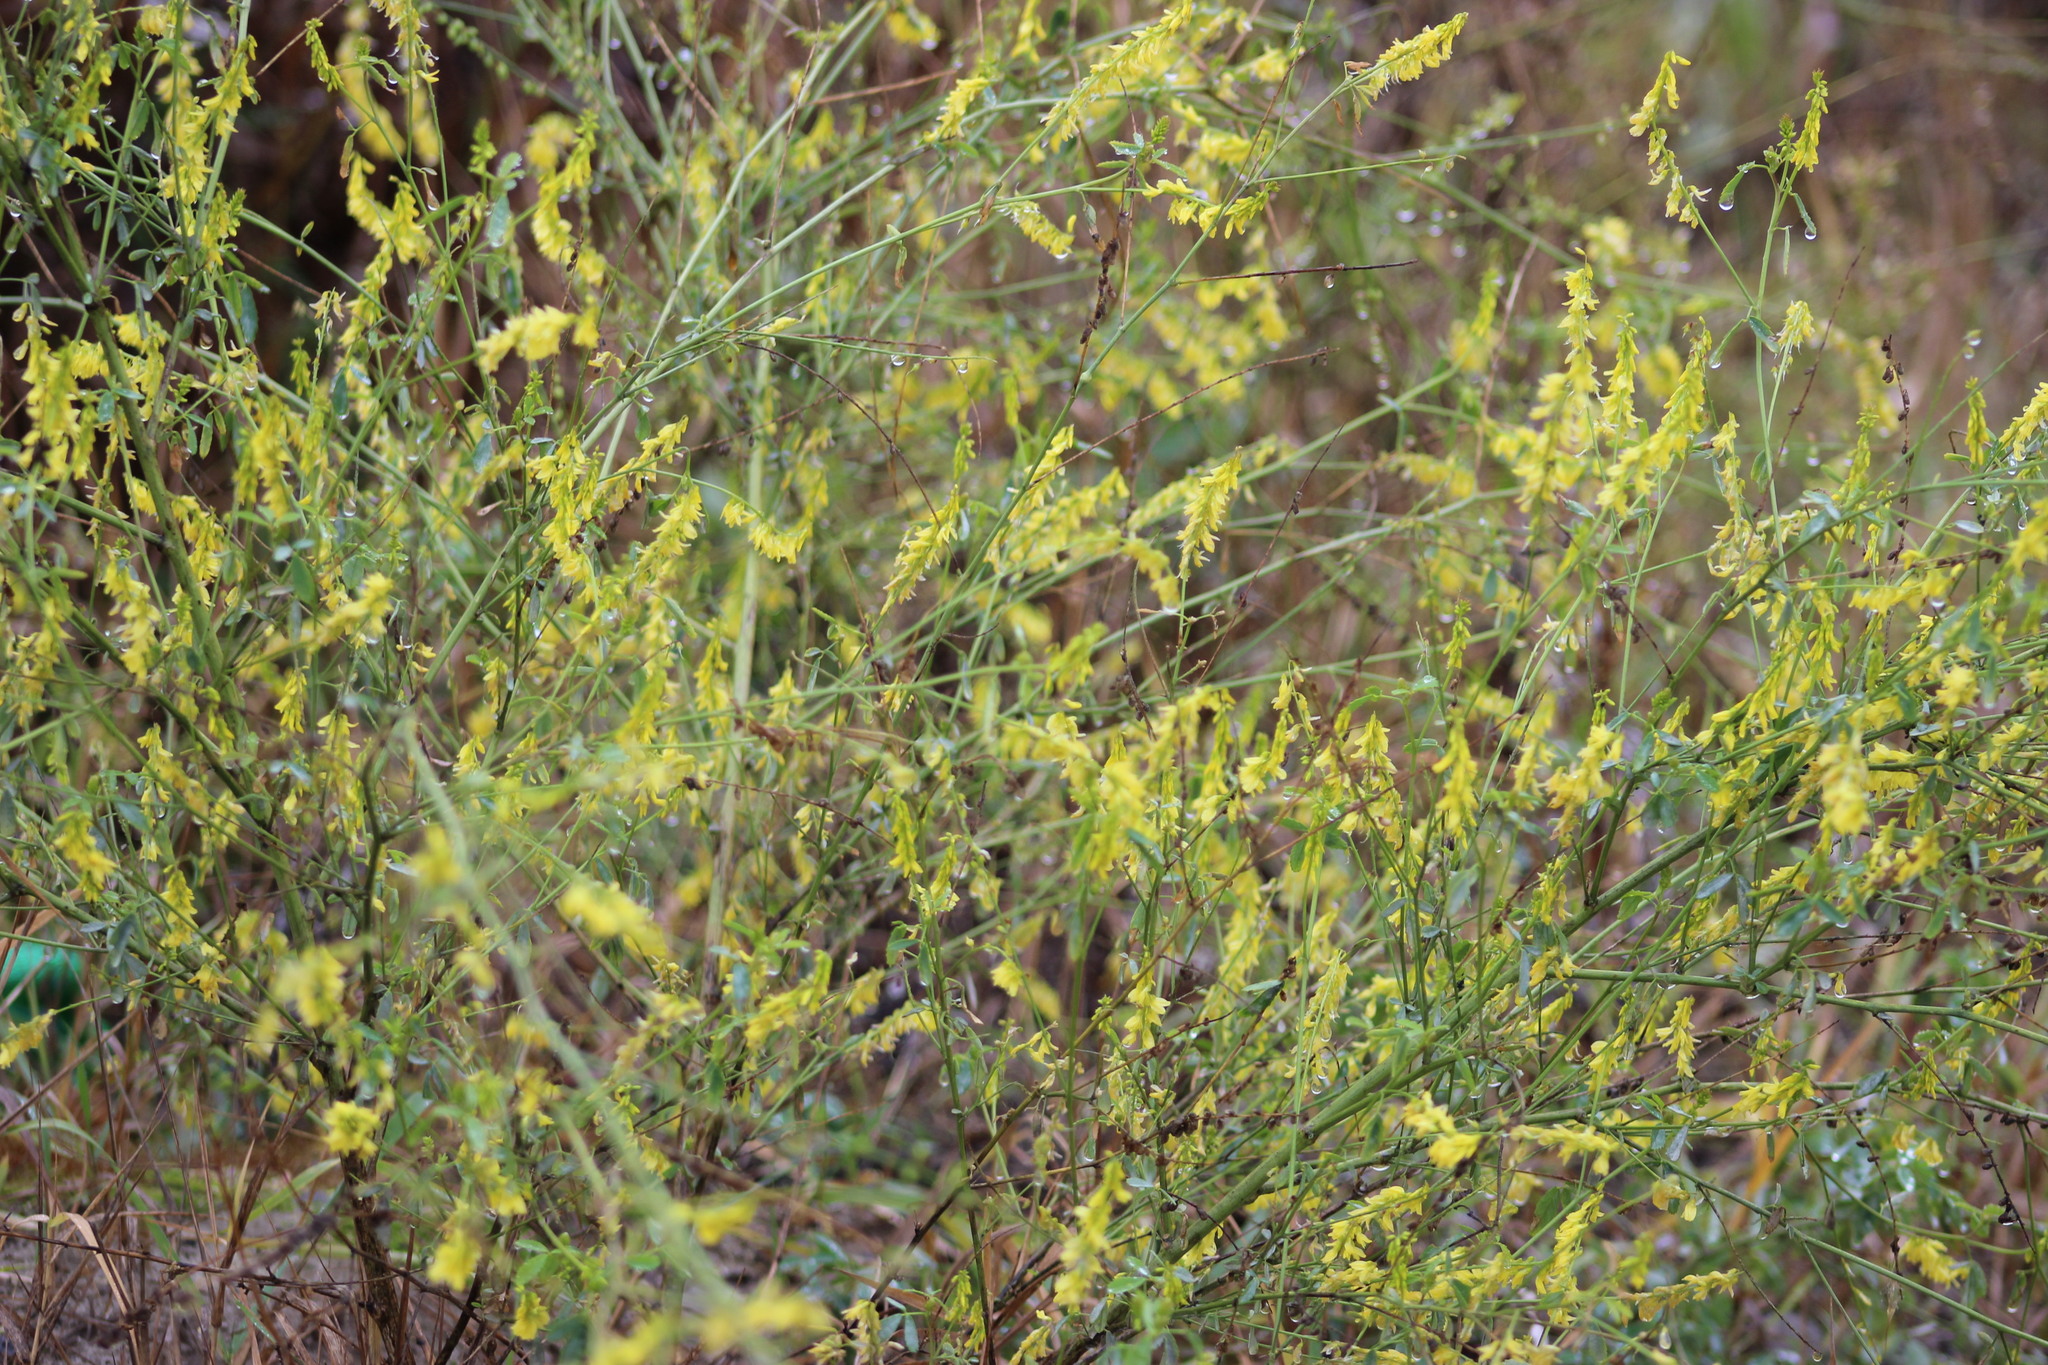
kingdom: Plantae
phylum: Tracheophyta
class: Magnoliopsida
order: Fabales
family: Fabaceae
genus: Melilotus
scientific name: Melilotus officinalis
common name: Sweetclover
